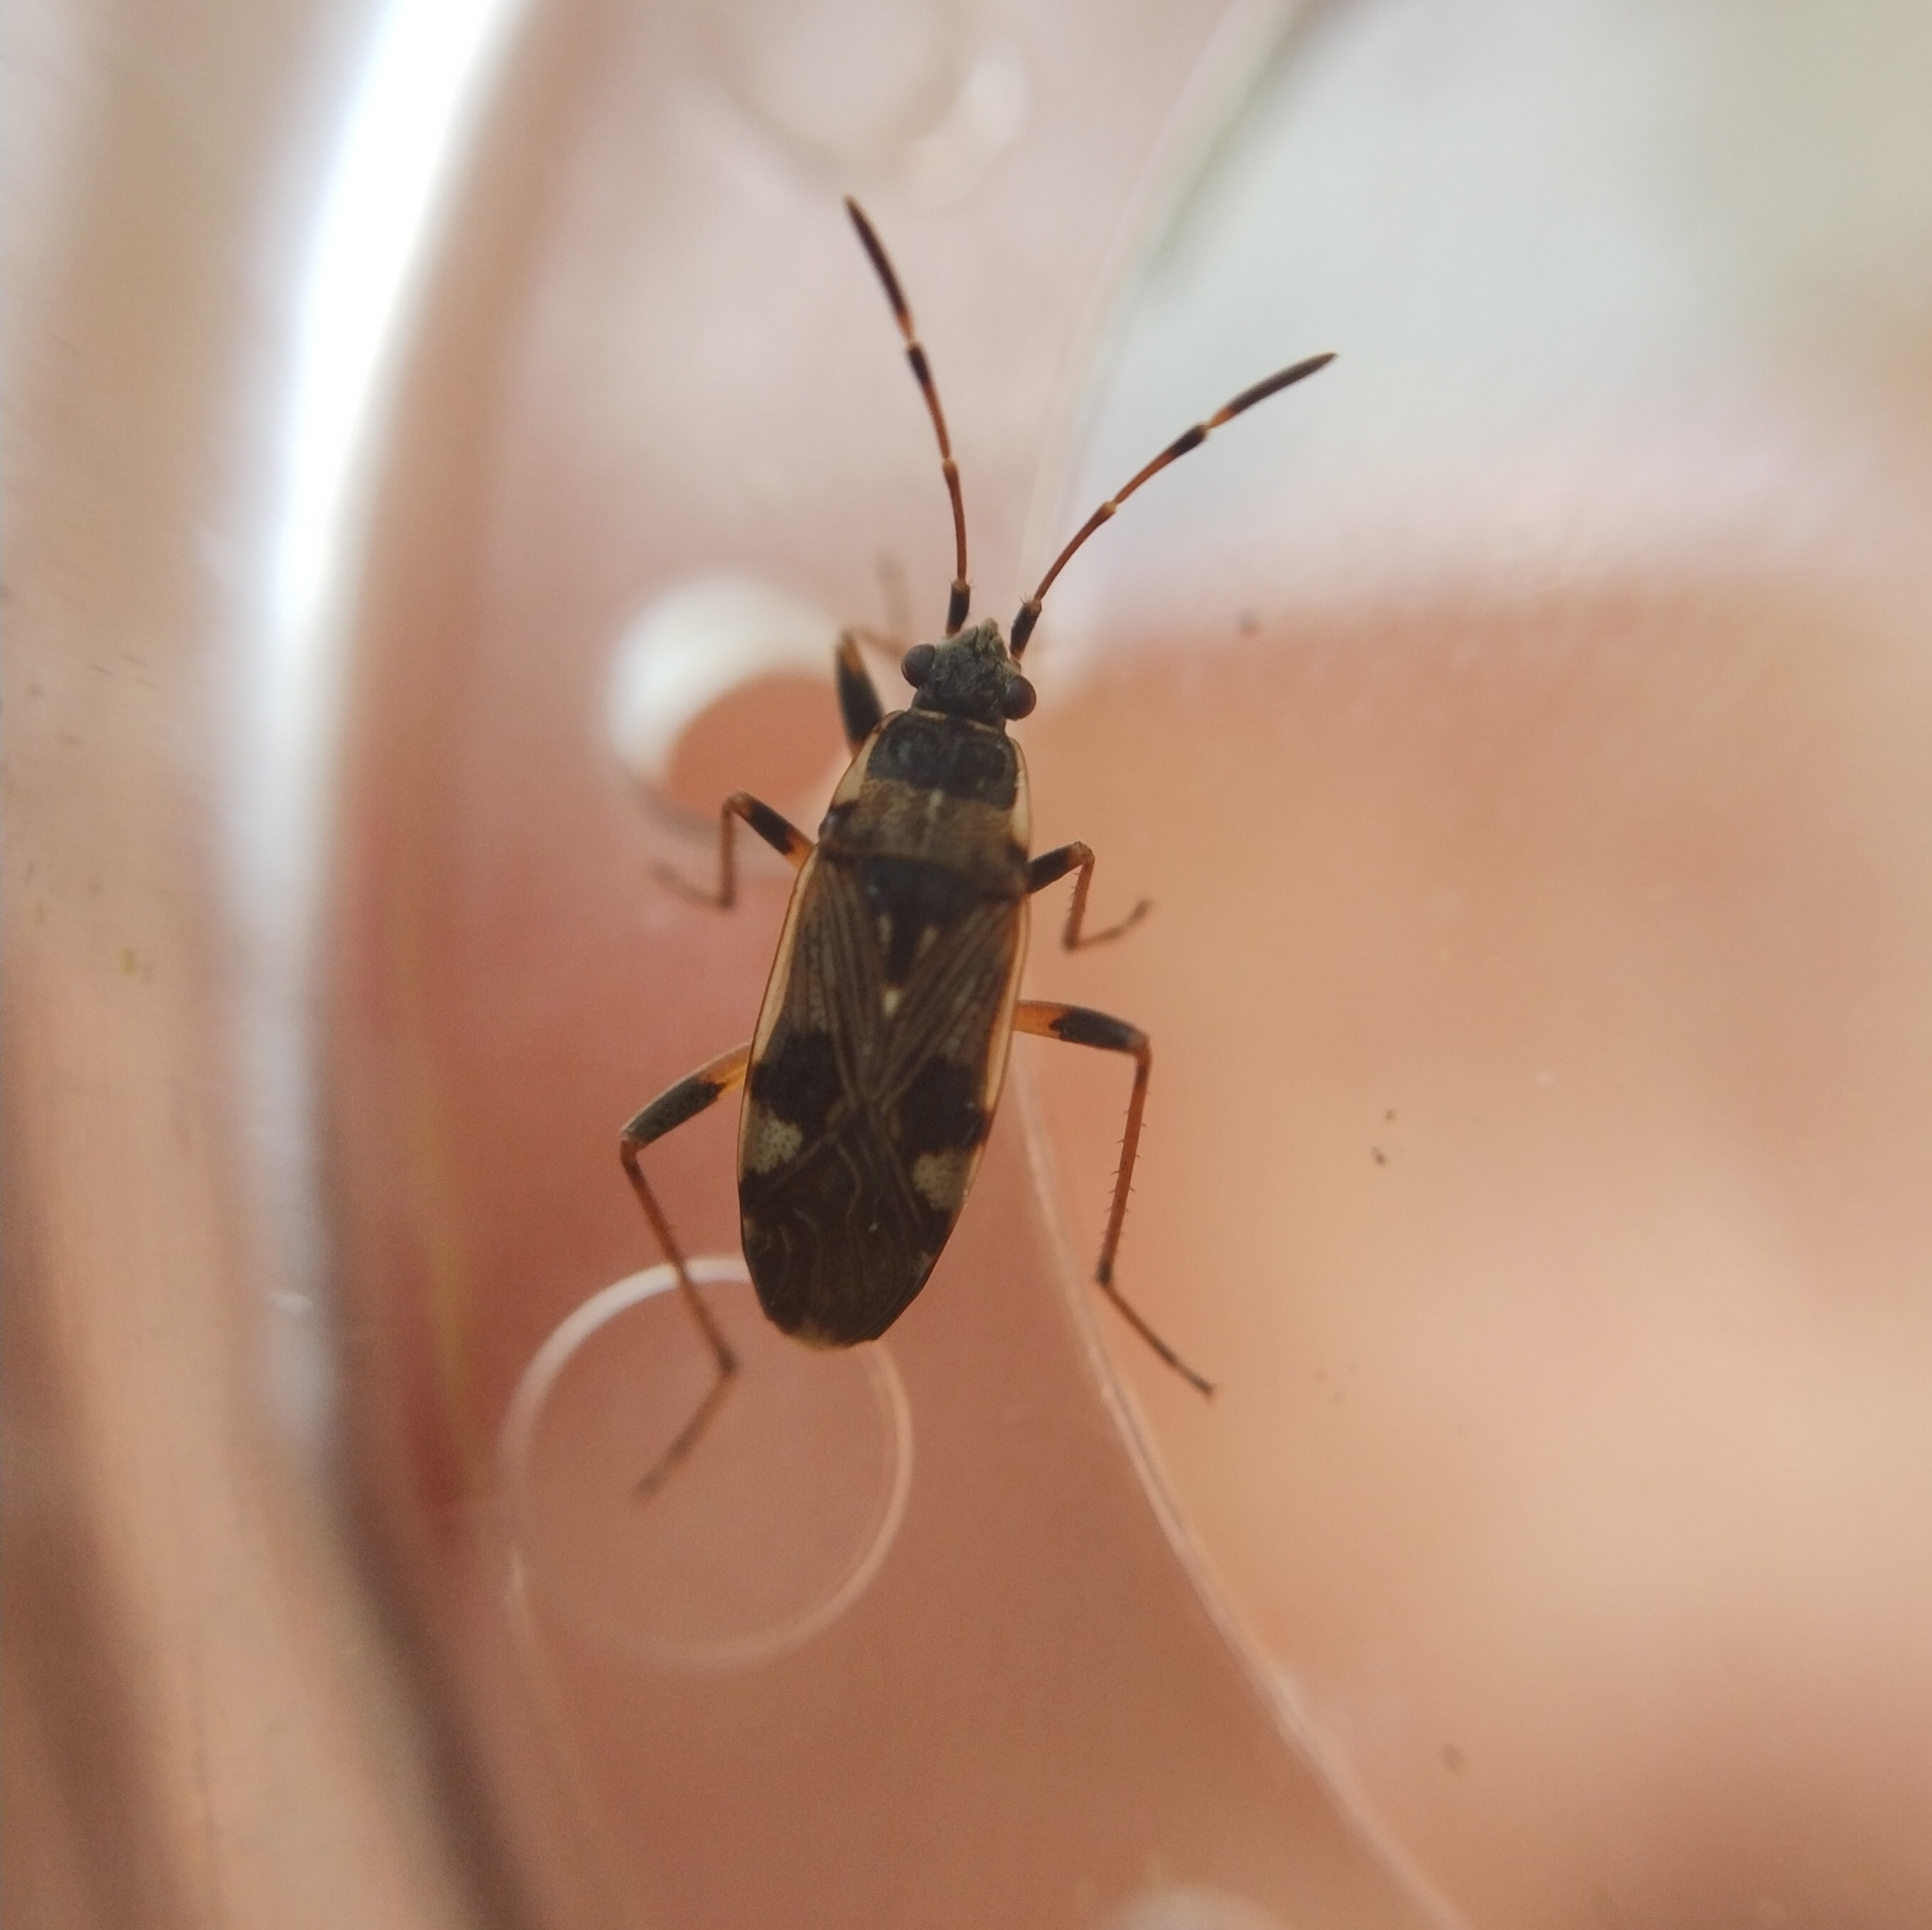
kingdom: Animalia
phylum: Arthropoda
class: Insecta
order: Hemiptera
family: Rhyparochromidae
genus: Beosus
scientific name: Beosus maritimus
